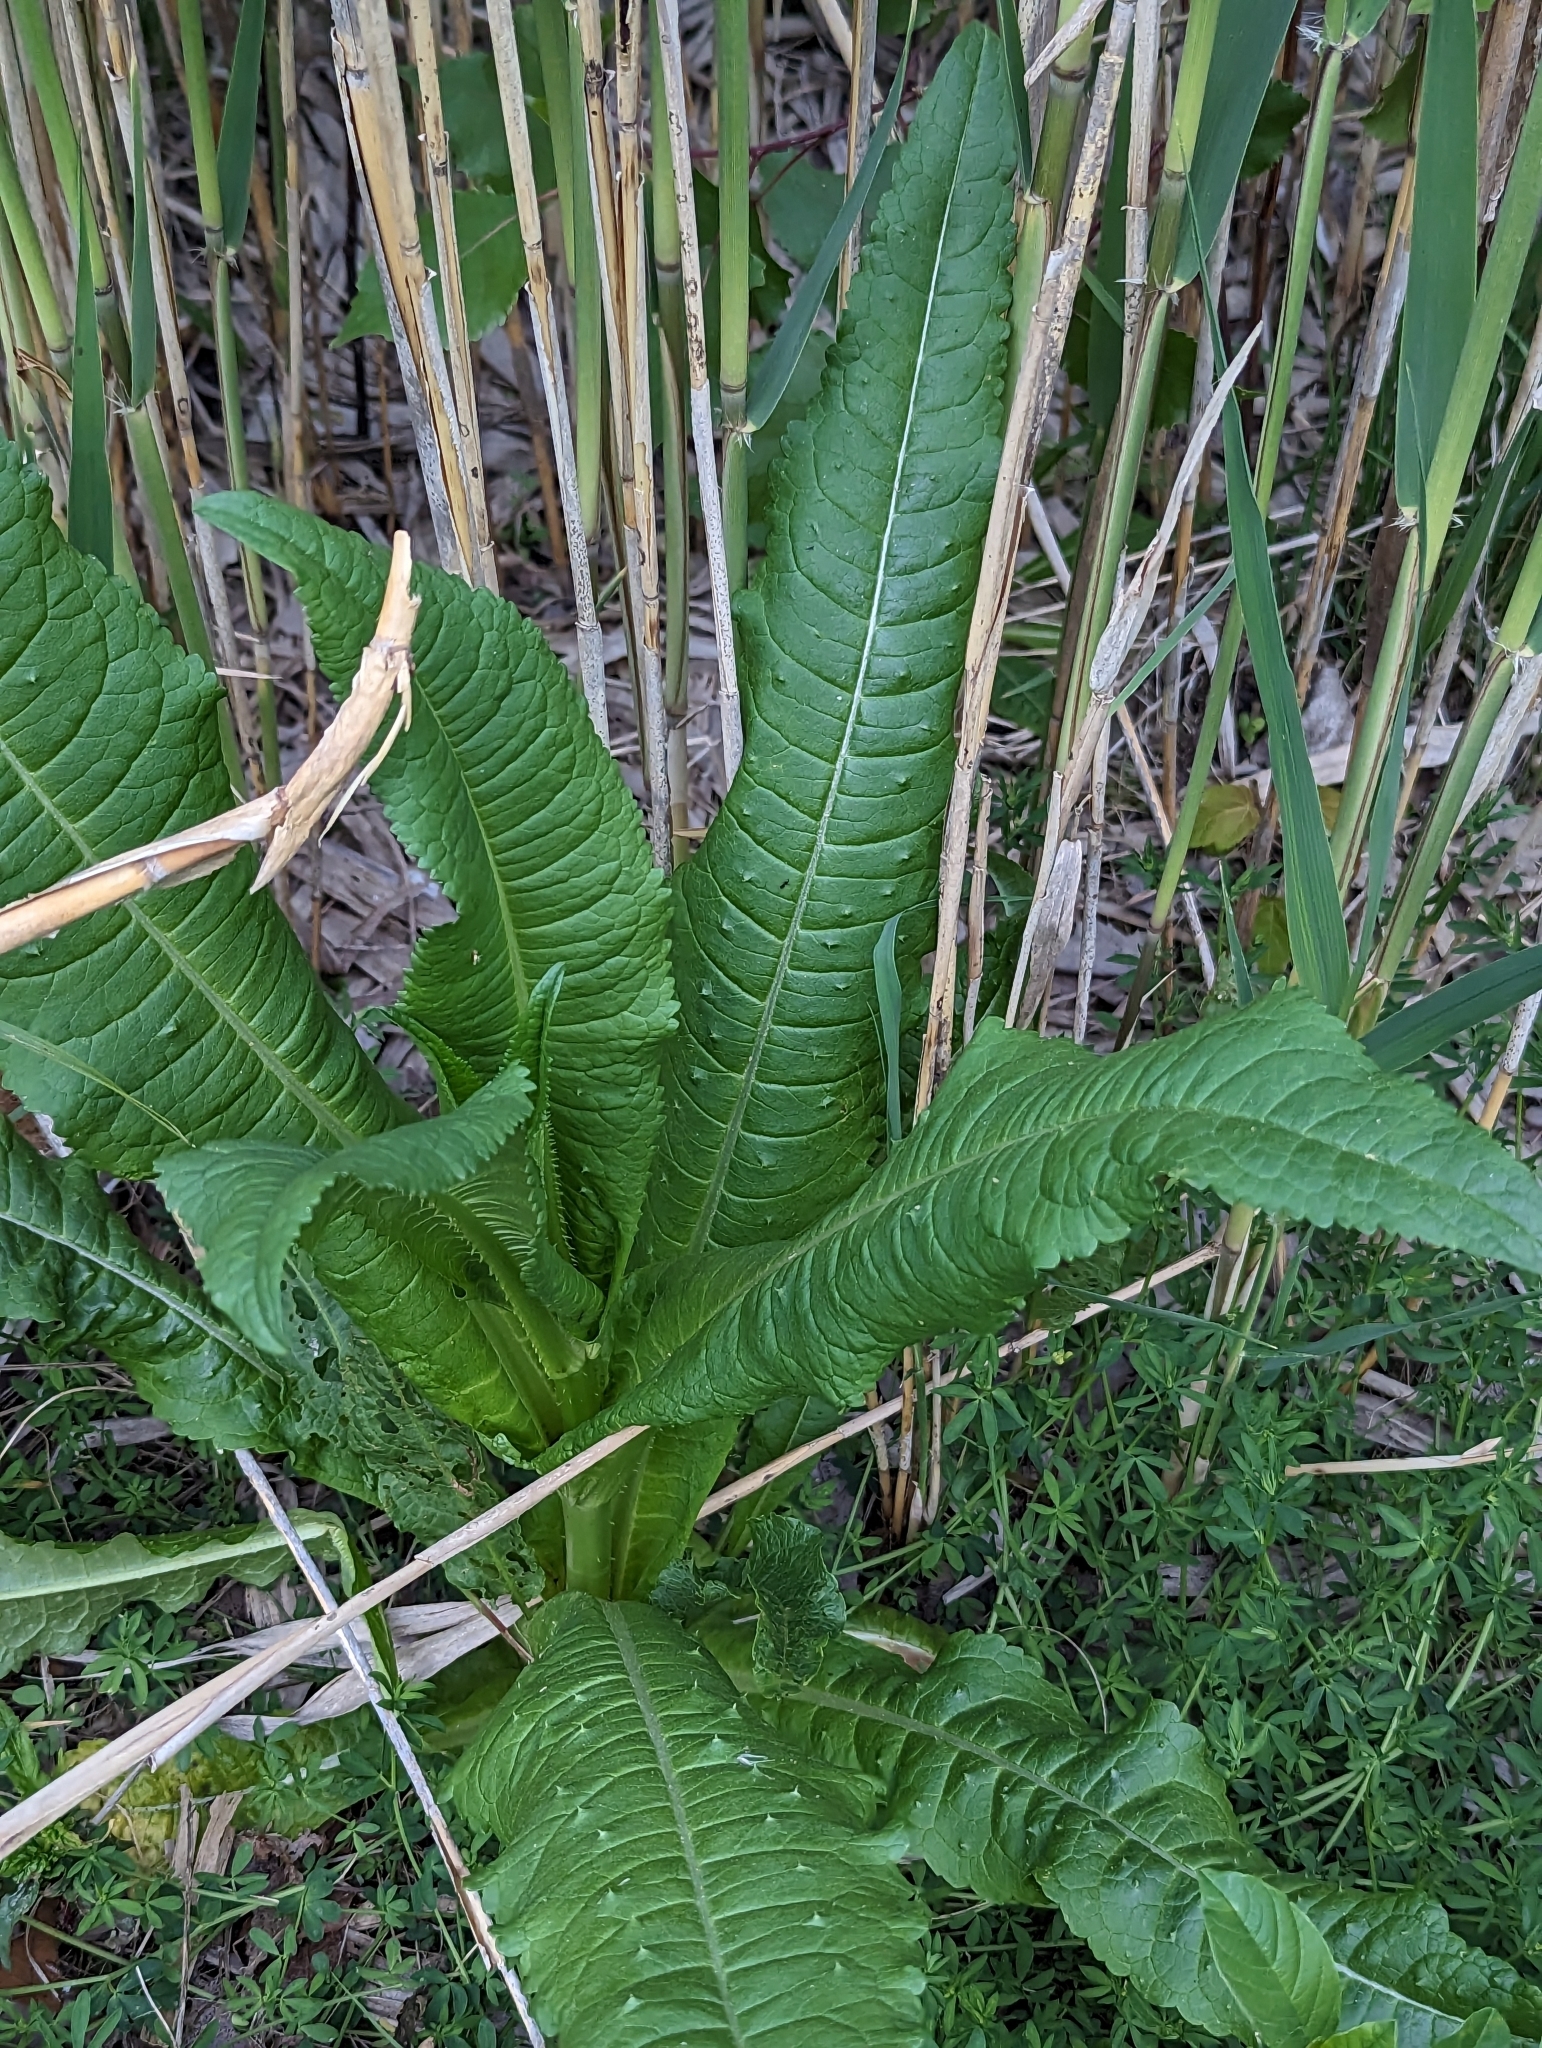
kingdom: Plantae
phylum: Tracheophyta
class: Magnoliopsida
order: Dipsacales
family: Caprifoliaceae
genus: Dipsacus
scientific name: Dipsacus fullonum
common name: Teasel
